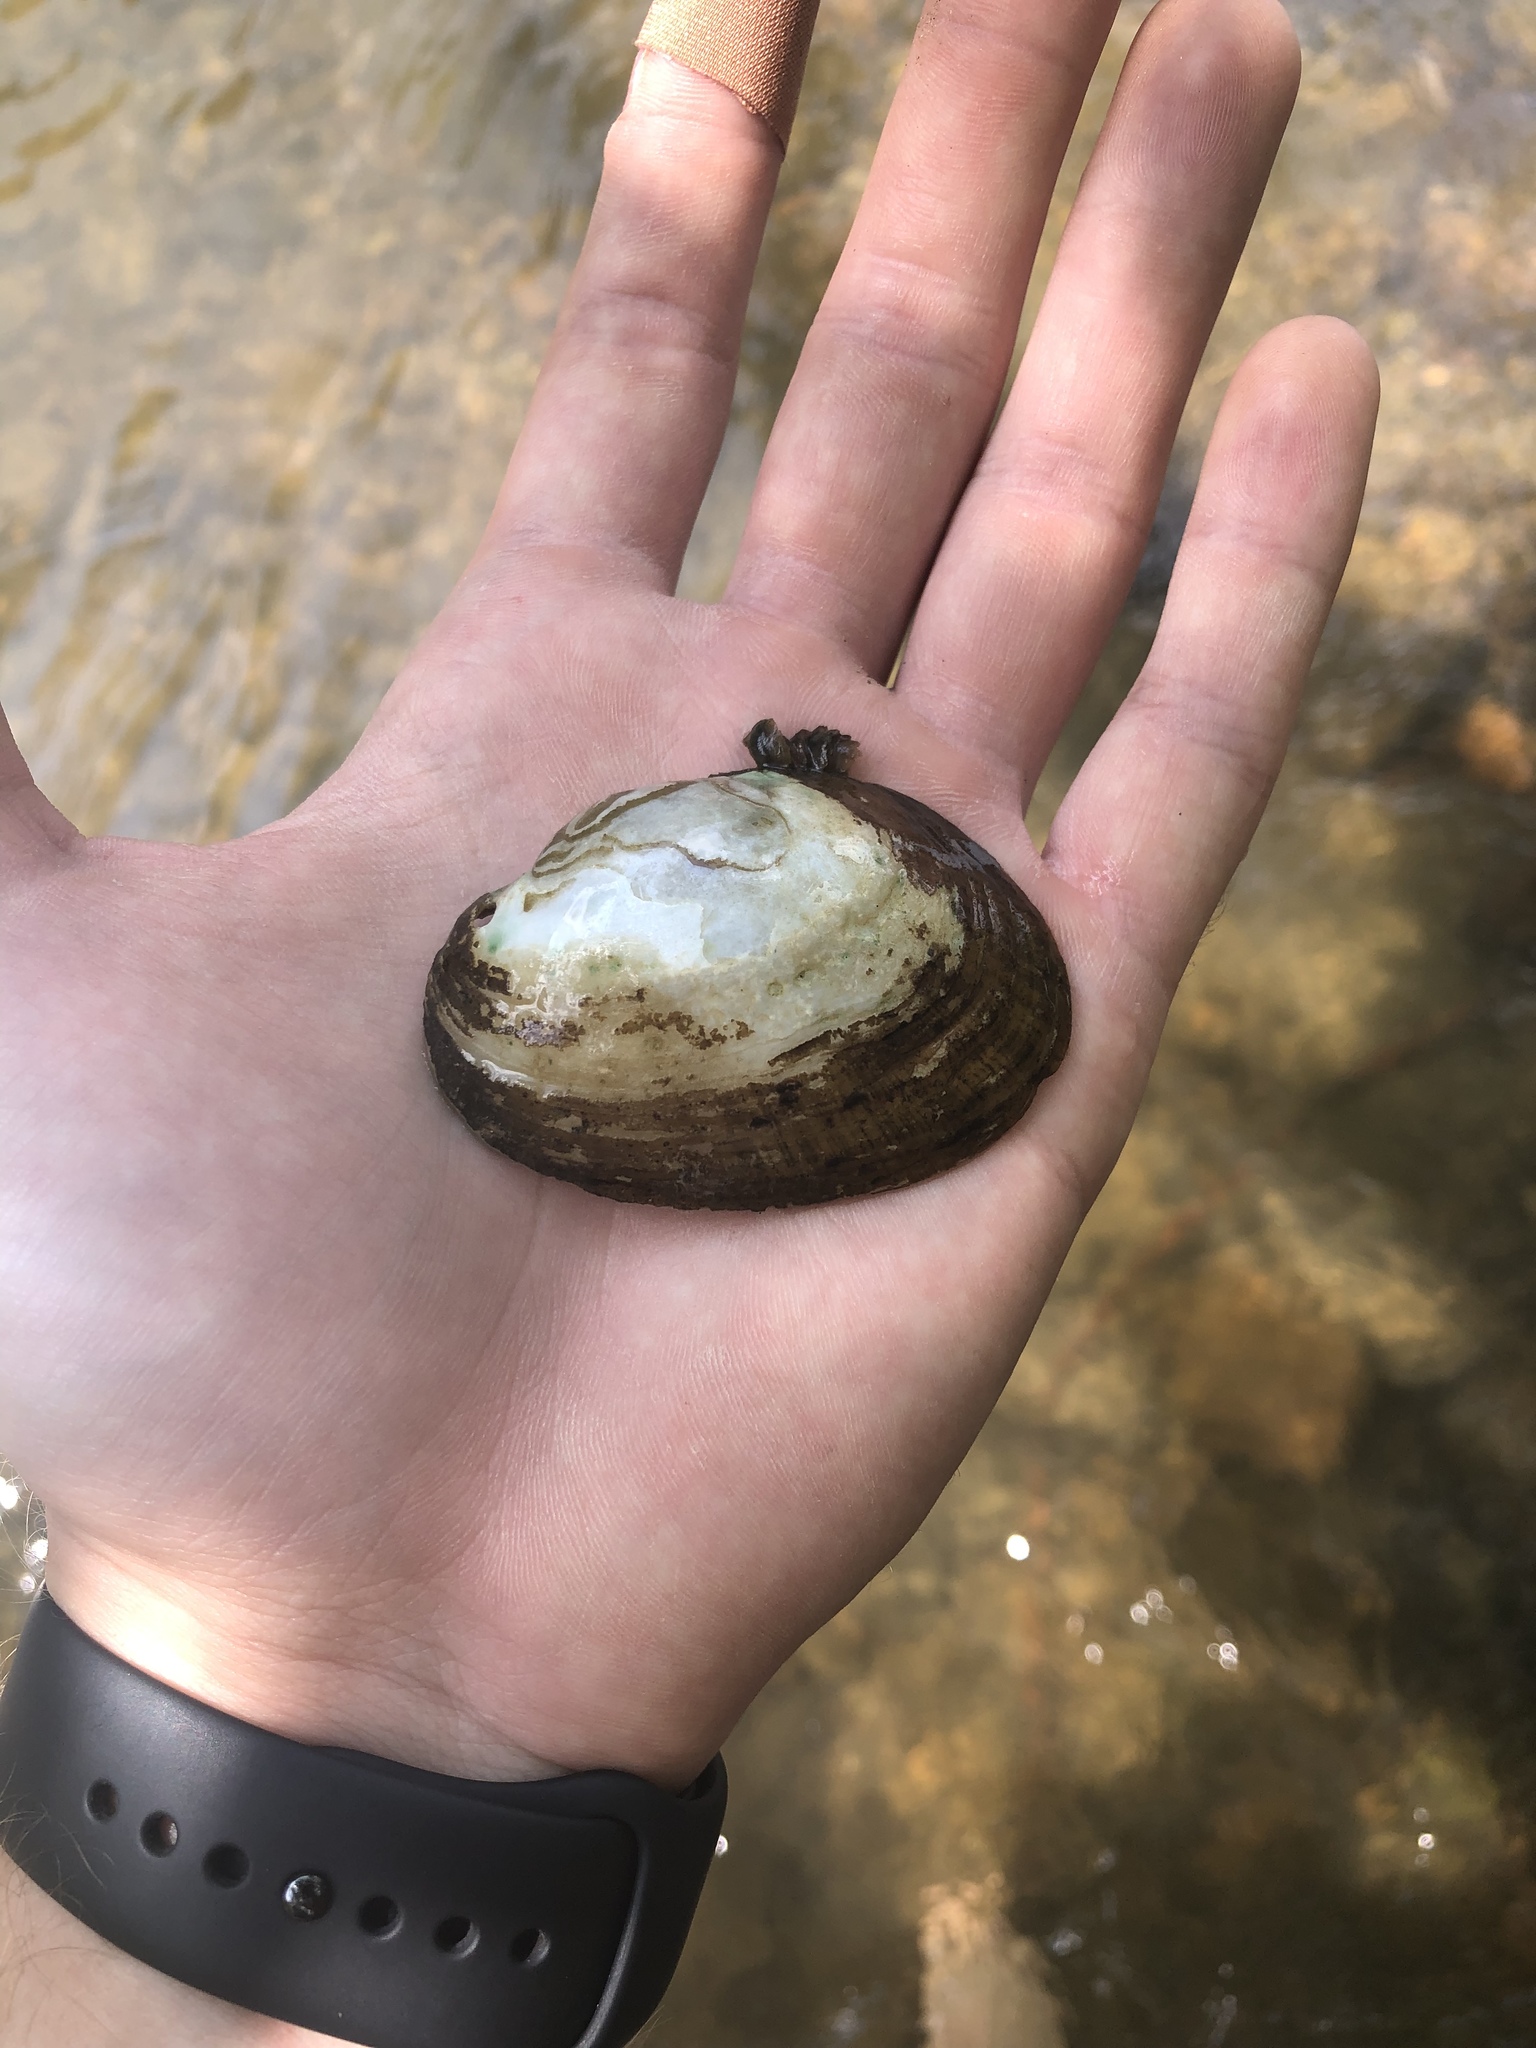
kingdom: Animalia
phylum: Mollusca
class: Bivalvia
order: Unionida
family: Unionidae
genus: Lampsilis
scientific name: Lampsilis fasciola
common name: Wavyrayed lampmussel
